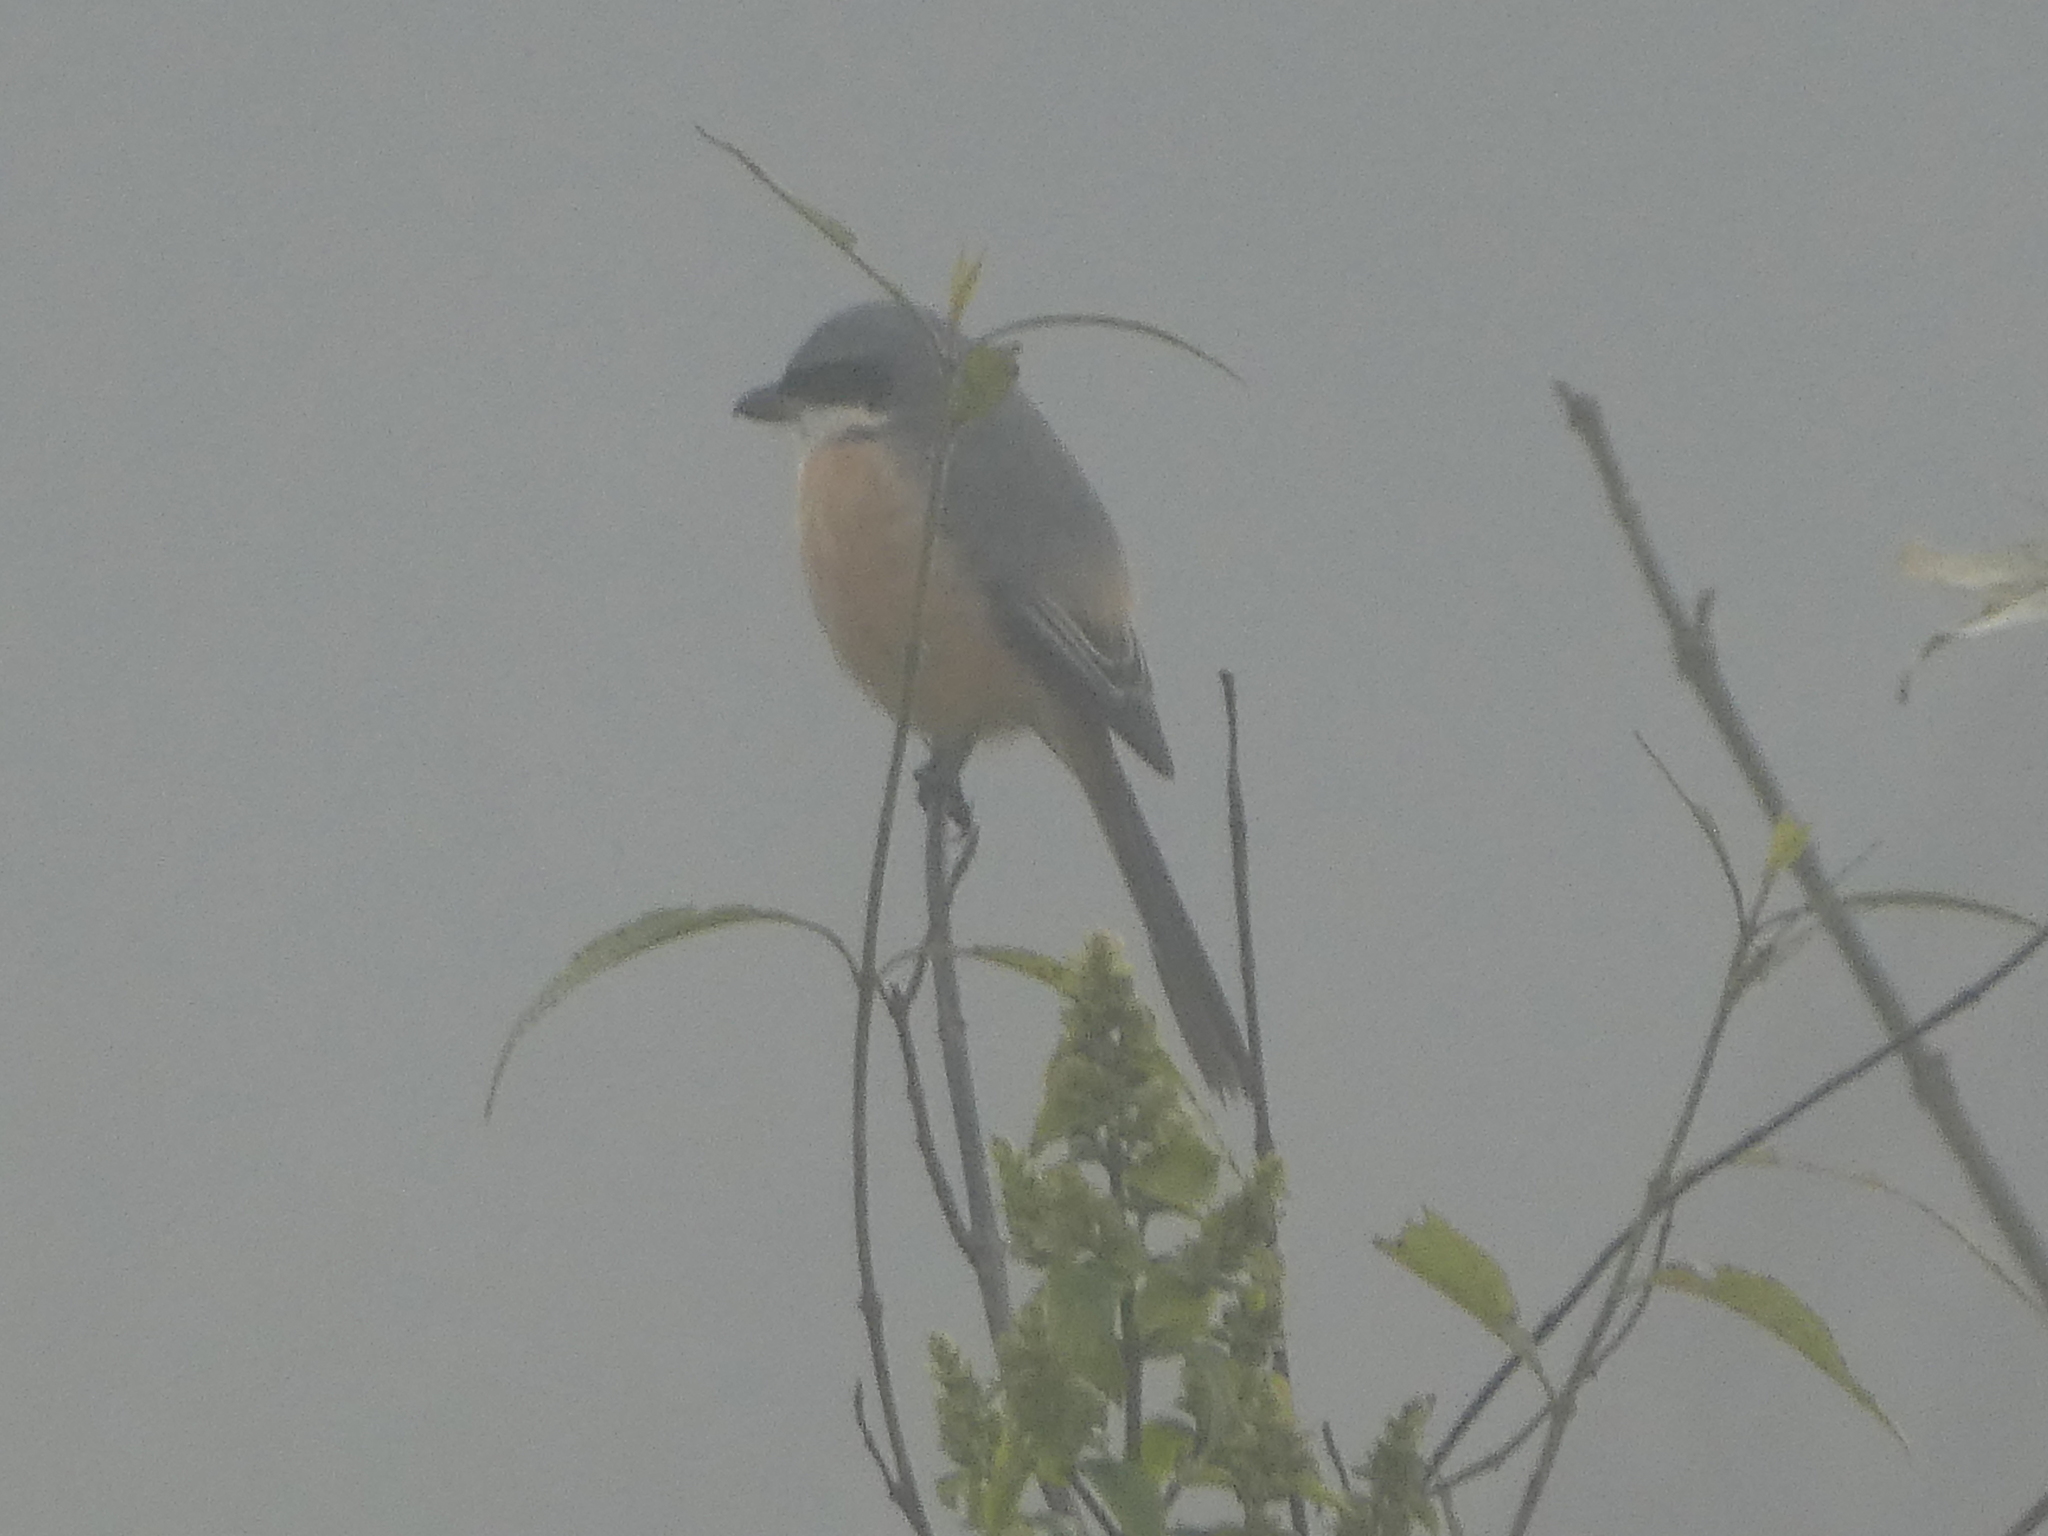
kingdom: Animalia
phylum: Chordata
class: Aves
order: Passeriformes
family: Laniidae
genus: Lanius
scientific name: Lanius tephronotus
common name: Grey-backed shrike
